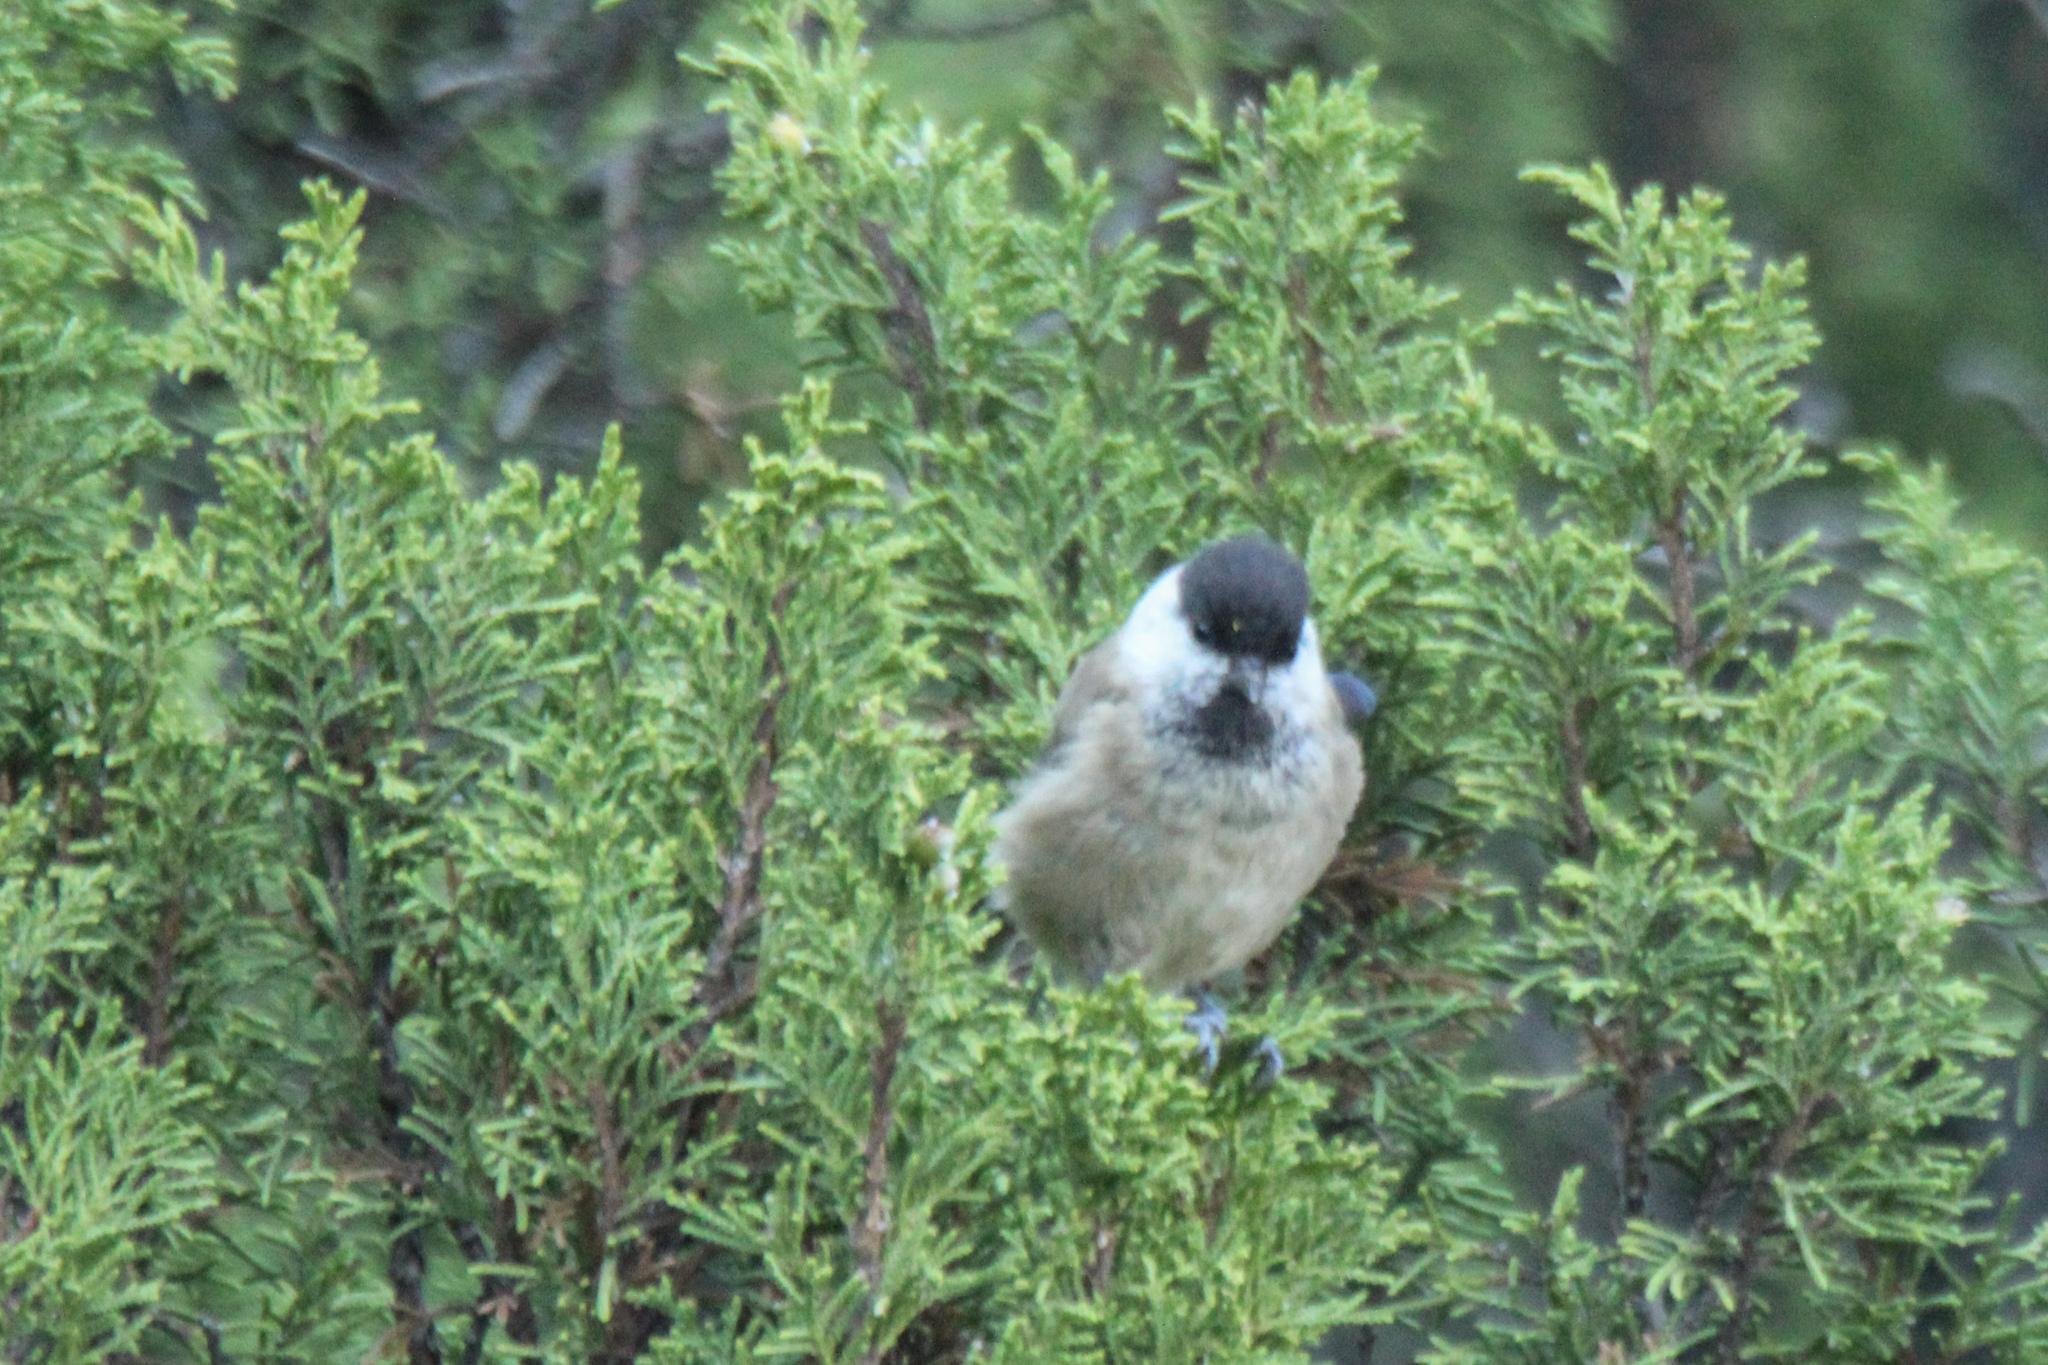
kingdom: Animalia
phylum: Chordata
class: Aves
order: Passeriformes
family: Paridae
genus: Poecile
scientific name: Poecile montanus
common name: Willow tit
